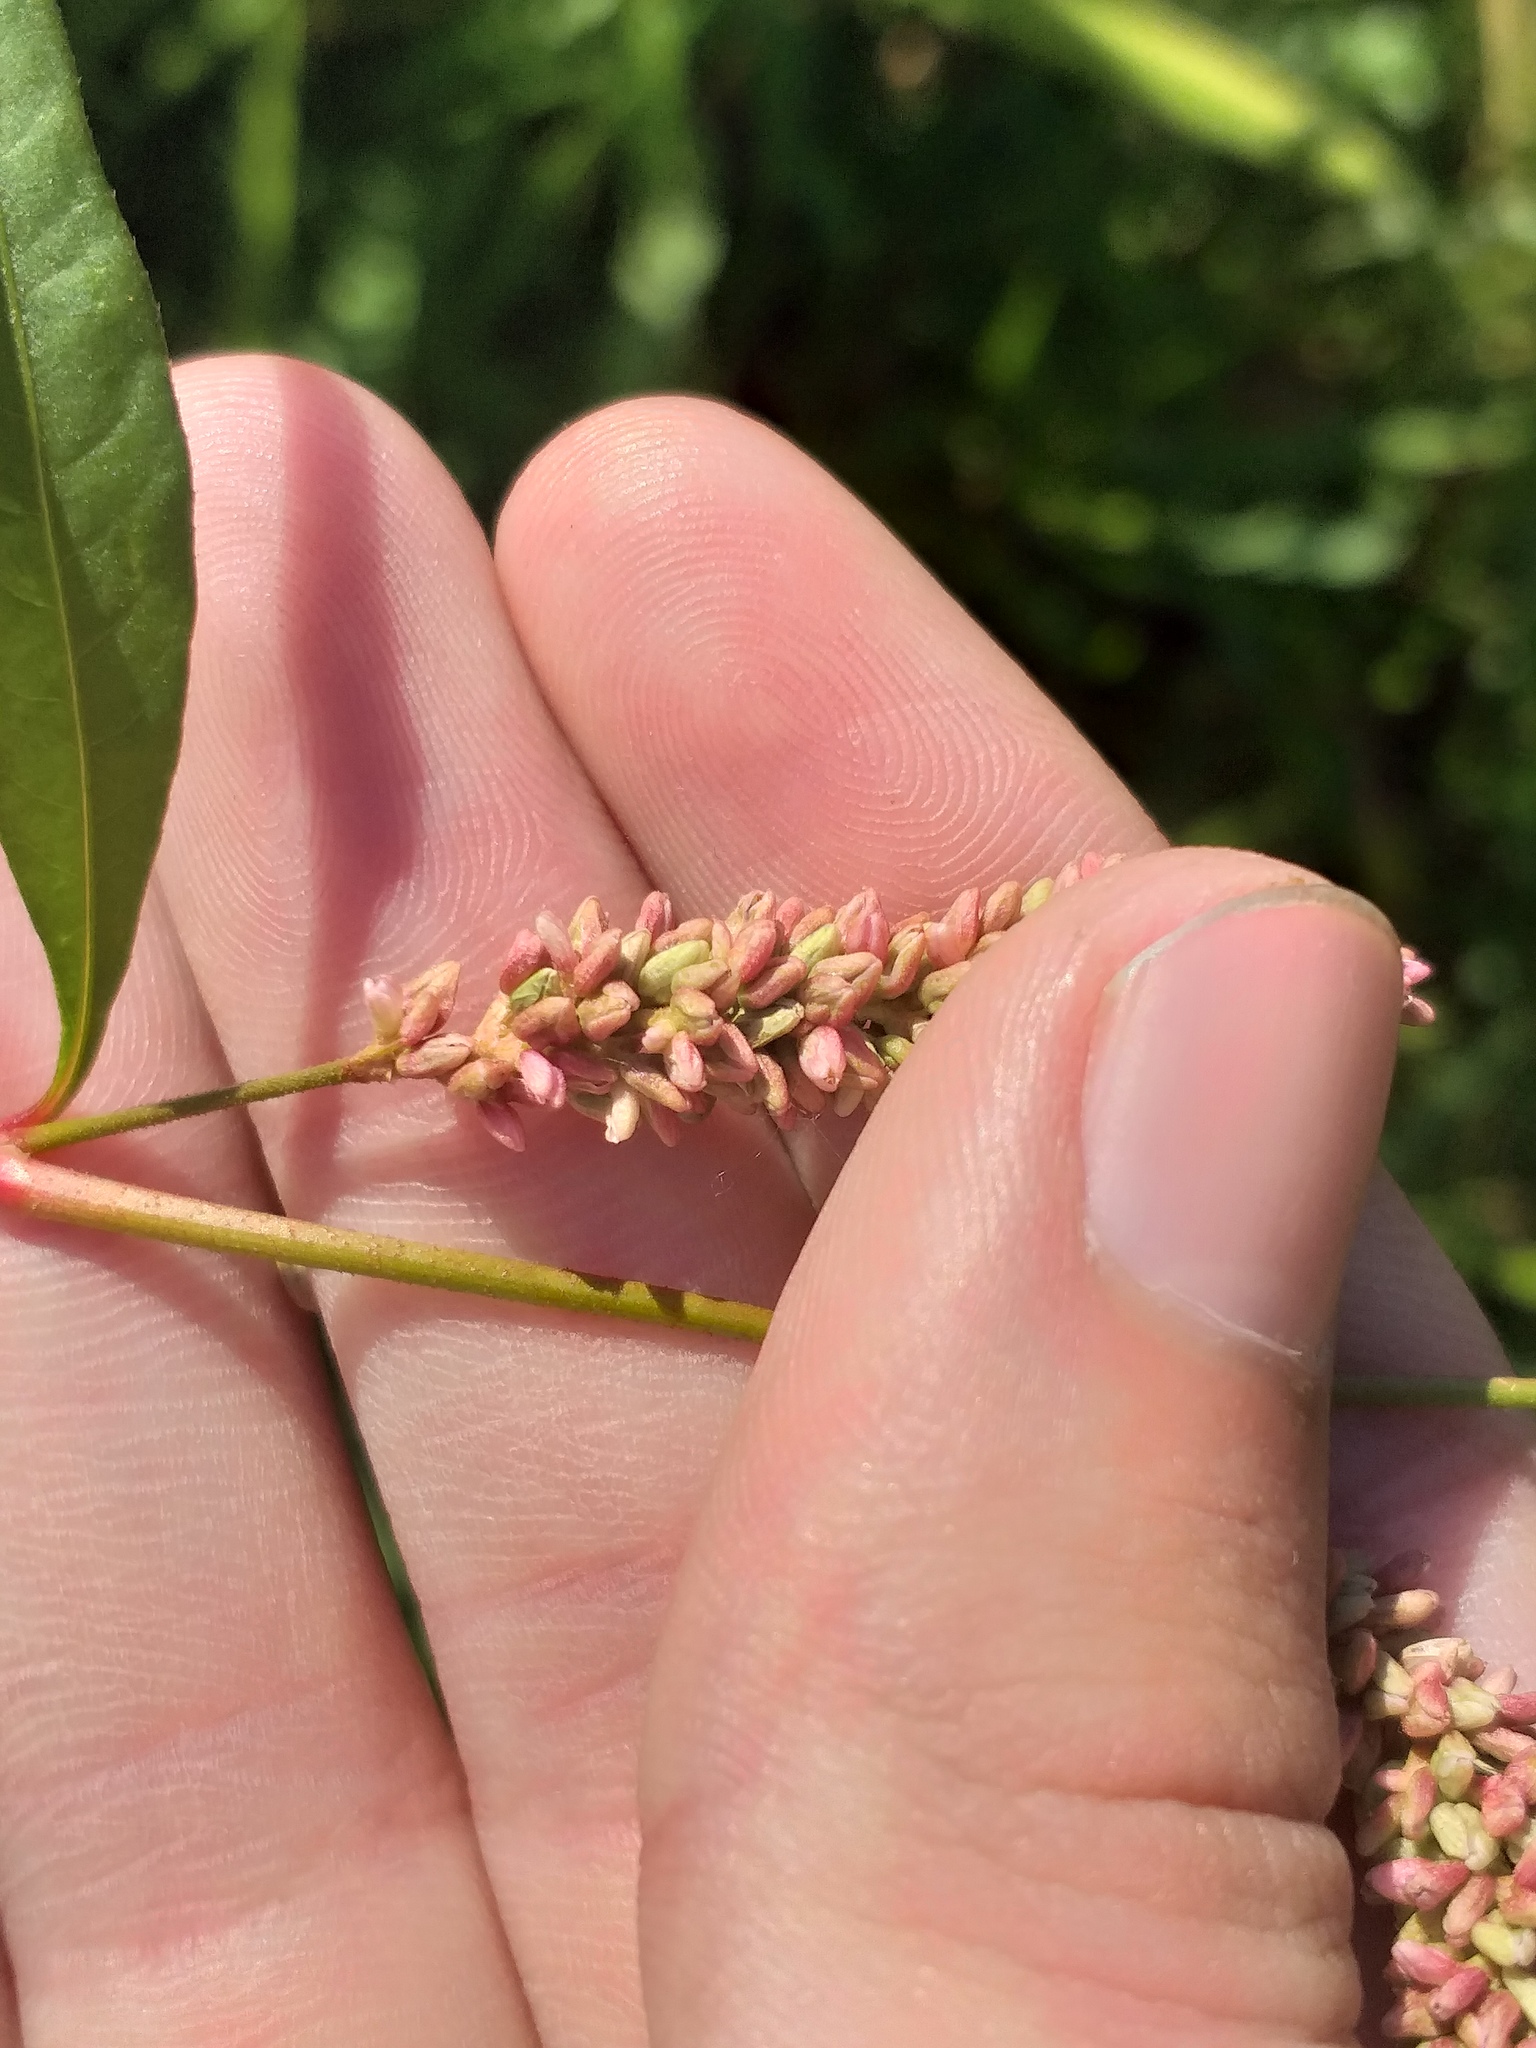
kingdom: Plantae
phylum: Tracheophyta
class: Magnoliopsida
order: Caryophyllales
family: Polygonaceae
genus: Persicaria
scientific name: Persicaria lapathifolia
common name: Curlytop knotweed
